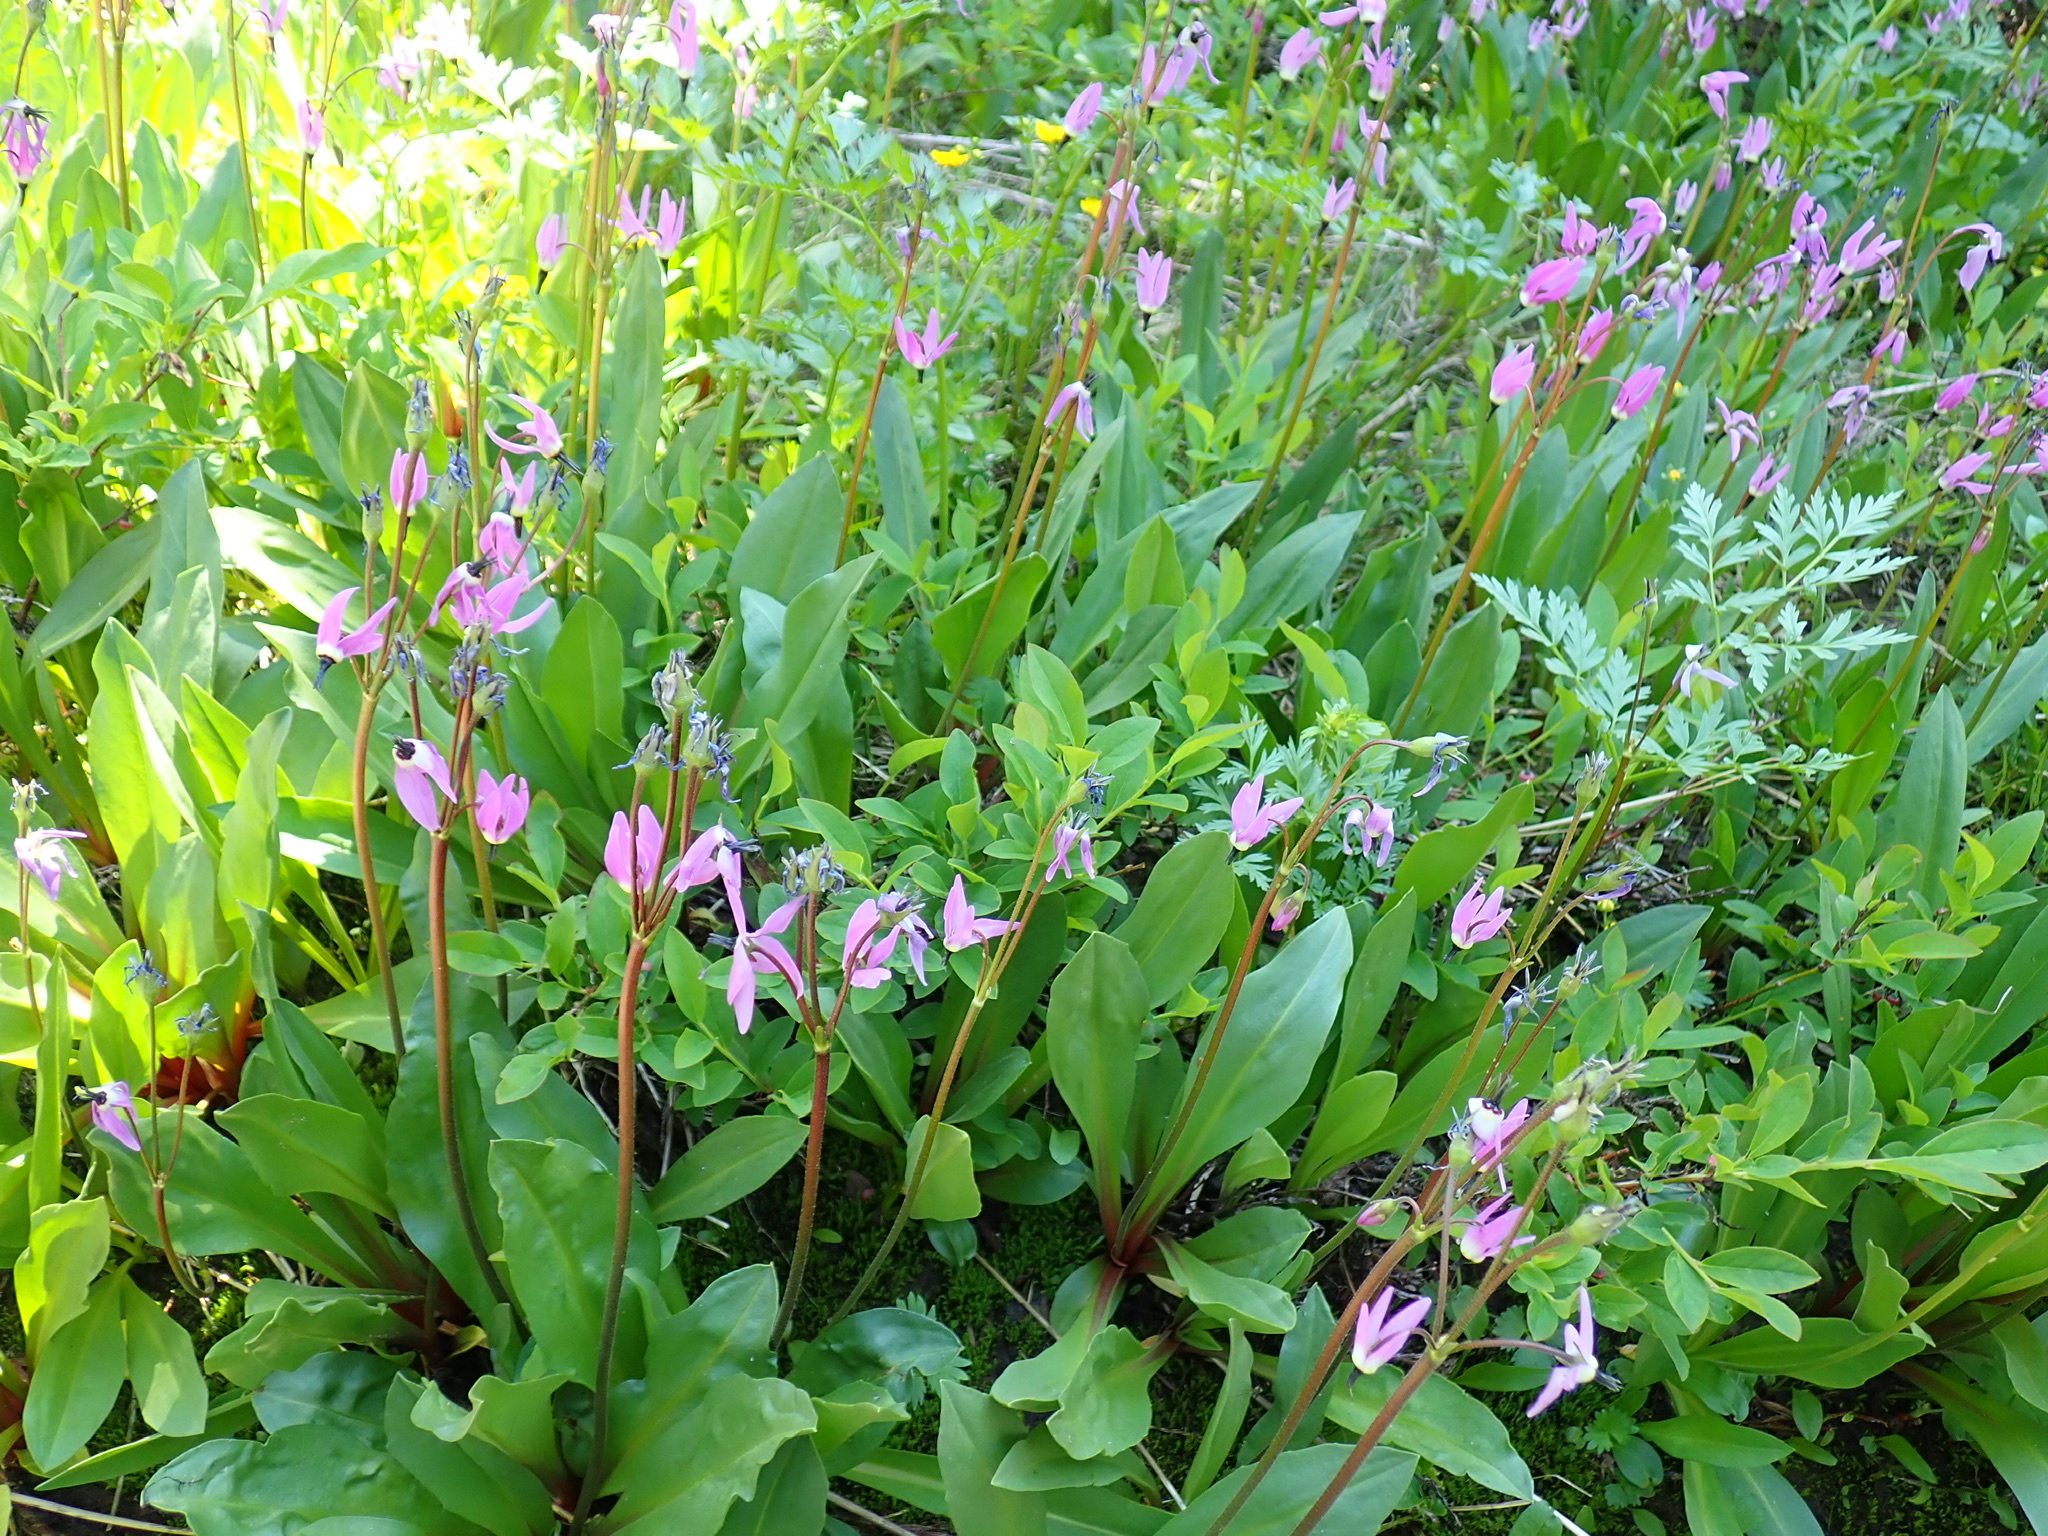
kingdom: Plantae
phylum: Tracheophyta
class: Magnoliopsida
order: Ericales
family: Primulaceae
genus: Dodecatheon
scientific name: Dodecatheon jeffreyanum
